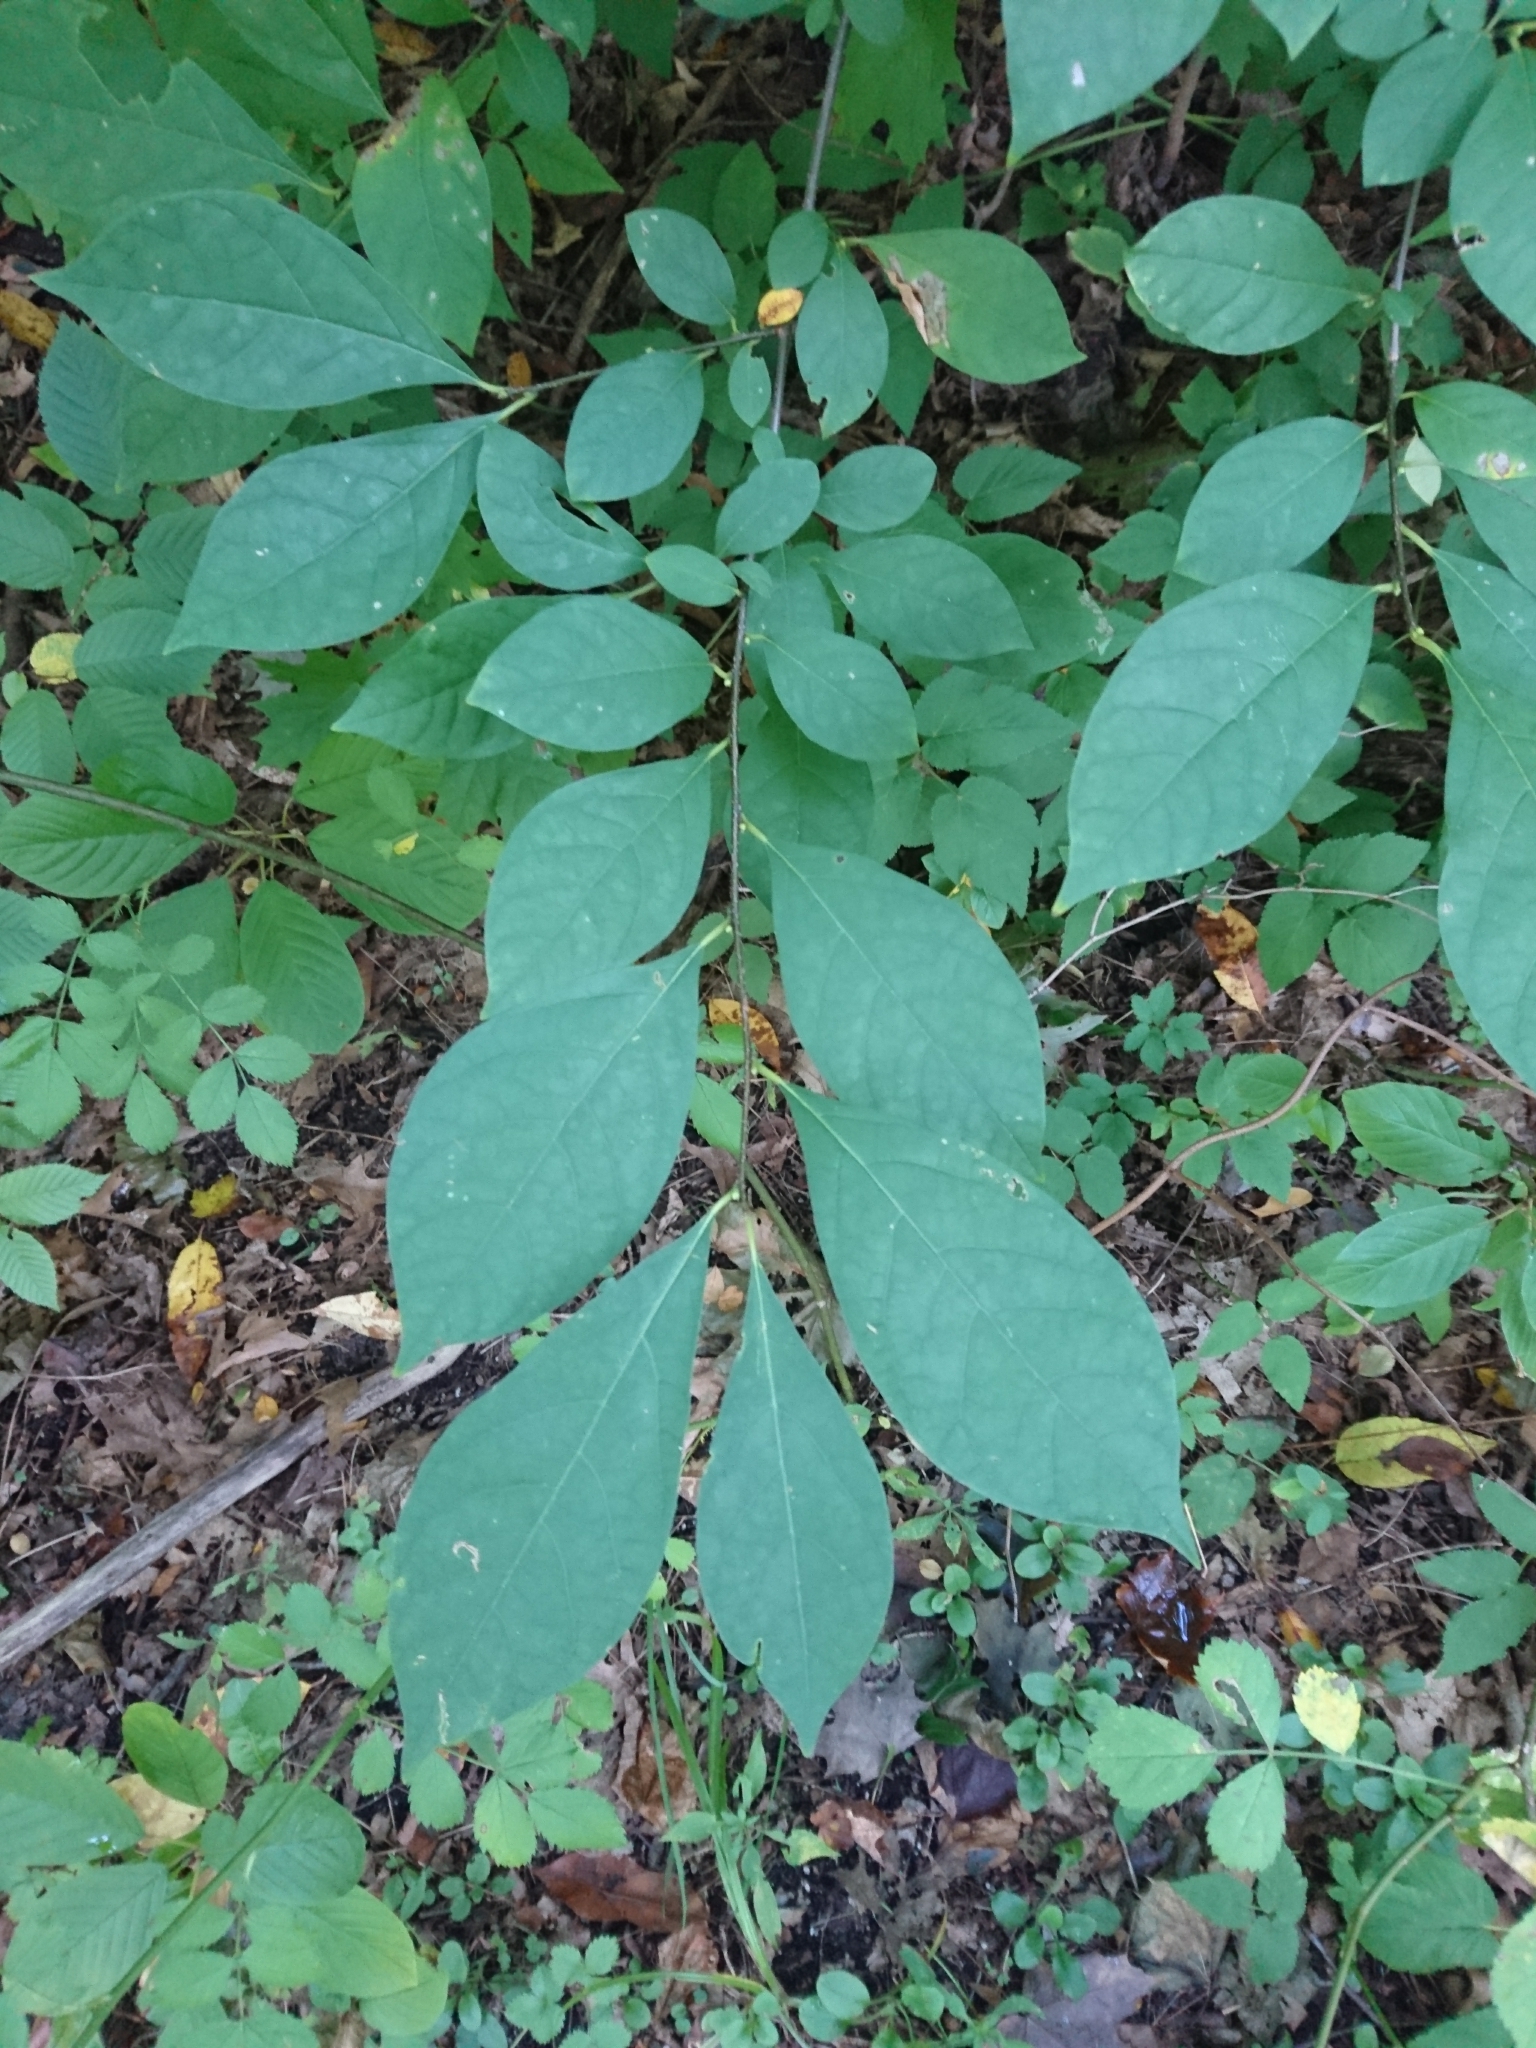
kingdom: Plantae
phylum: Tracheophyta
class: Magnoliopsida
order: Laurales
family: Lauraceae
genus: Lindera
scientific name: Lindera benzoin
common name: Spicebush
